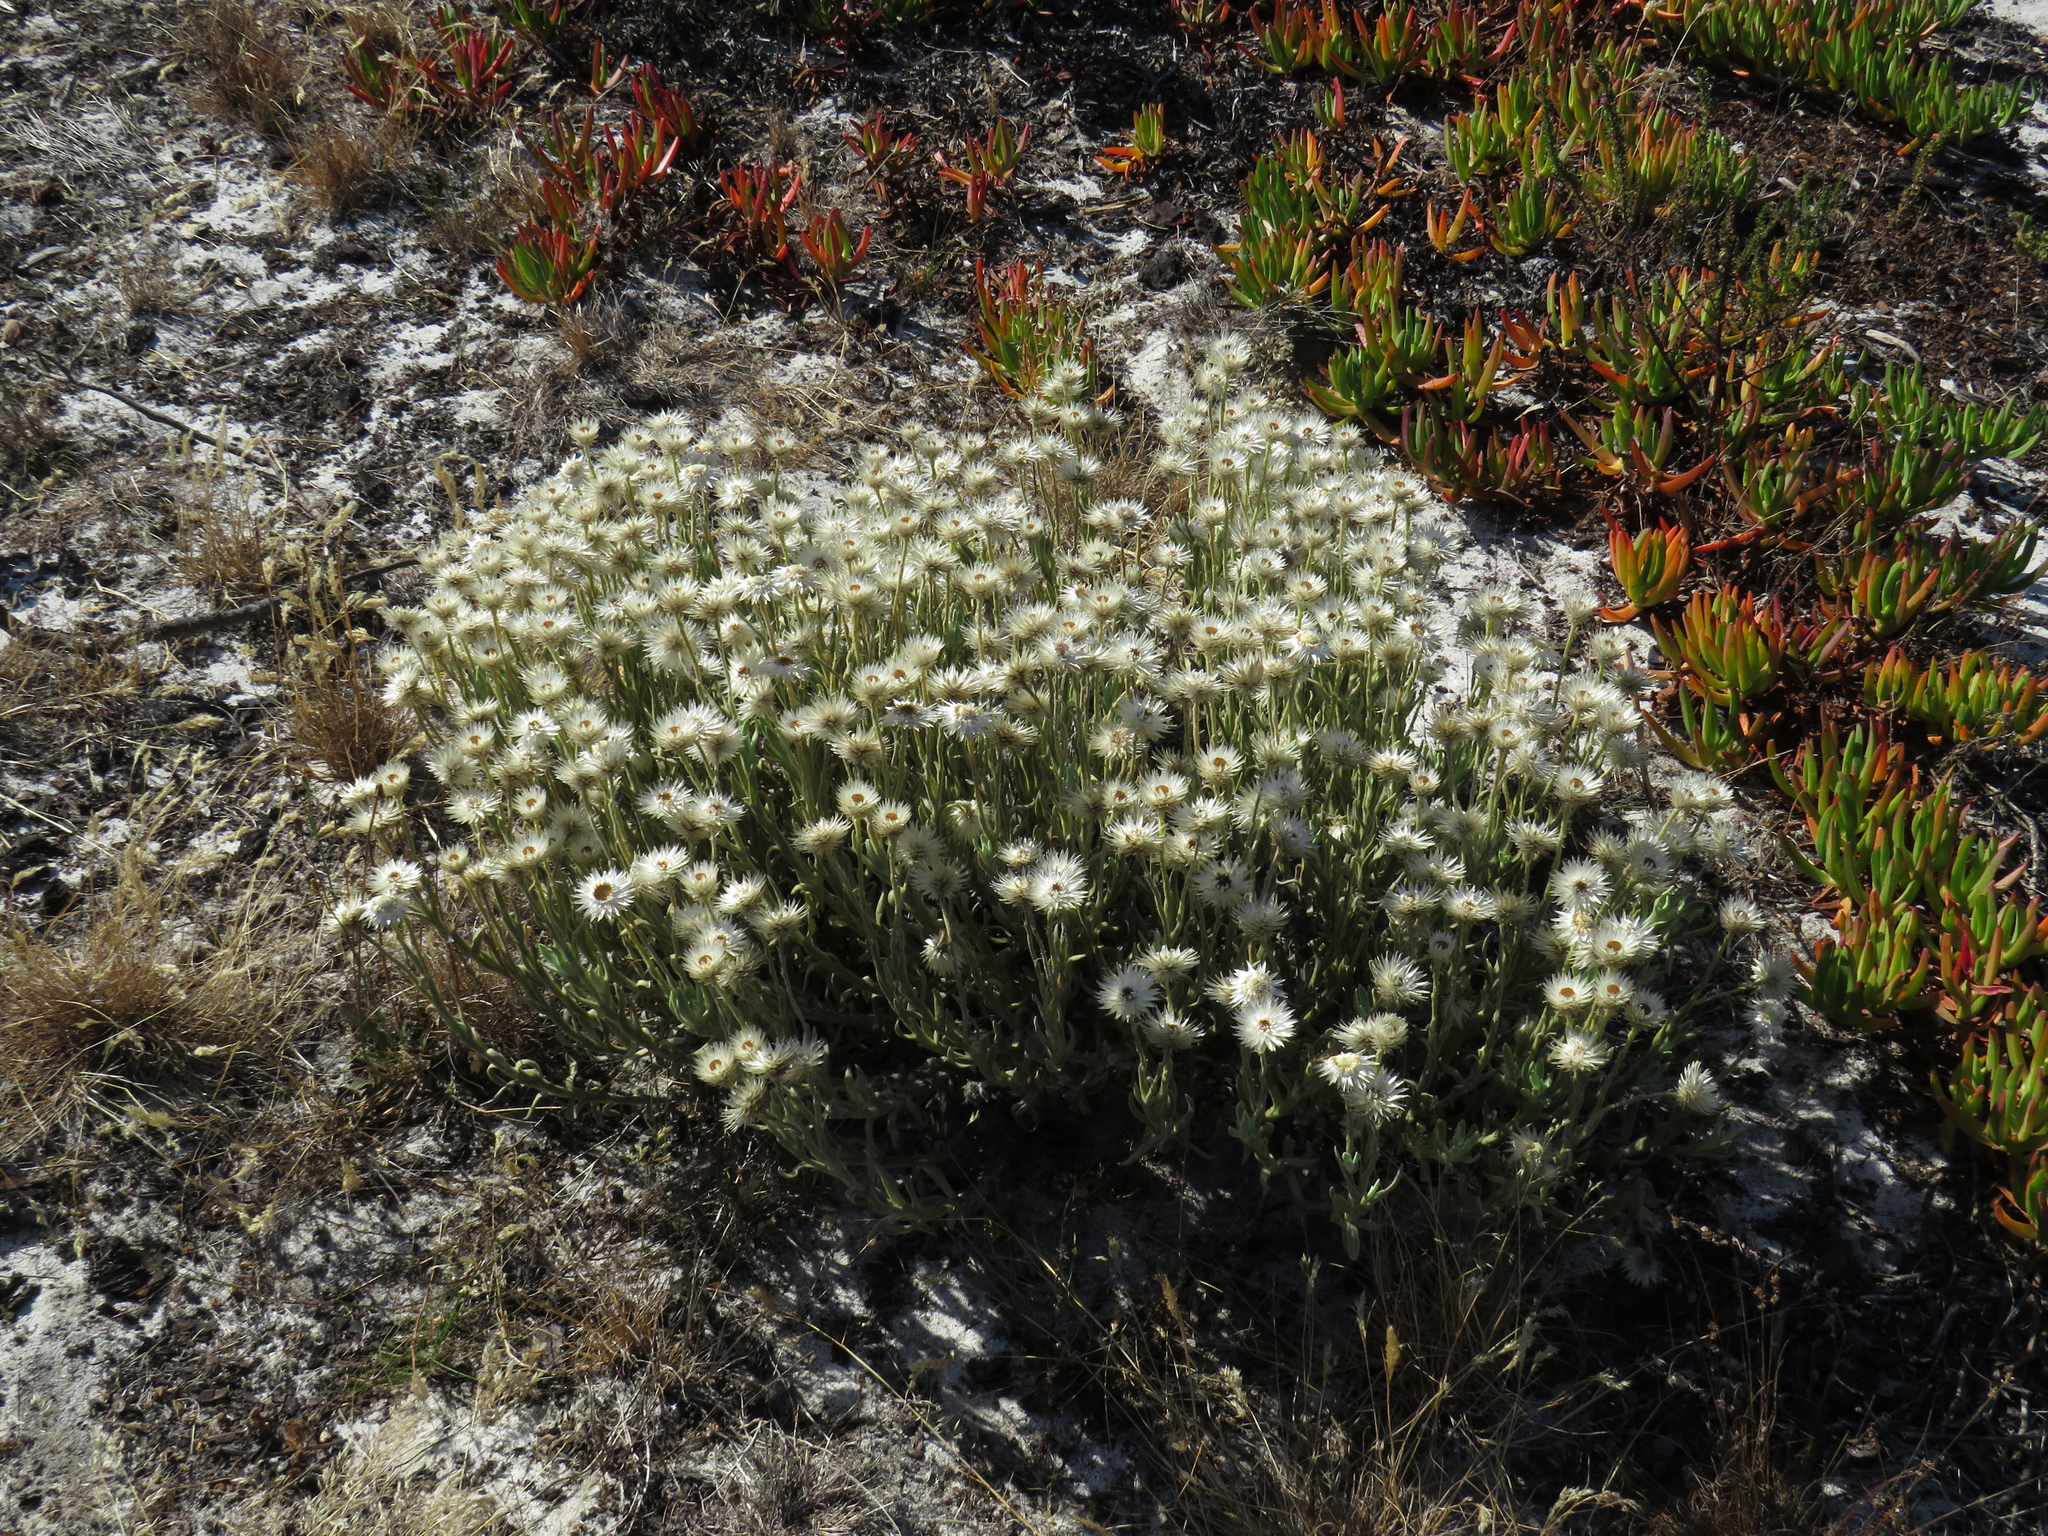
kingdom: Plantae
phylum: Tracheophyta
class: Magnoliopsida
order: Asterales
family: Asteraceae
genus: Syncarpha
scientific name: Syncarpha vestita
